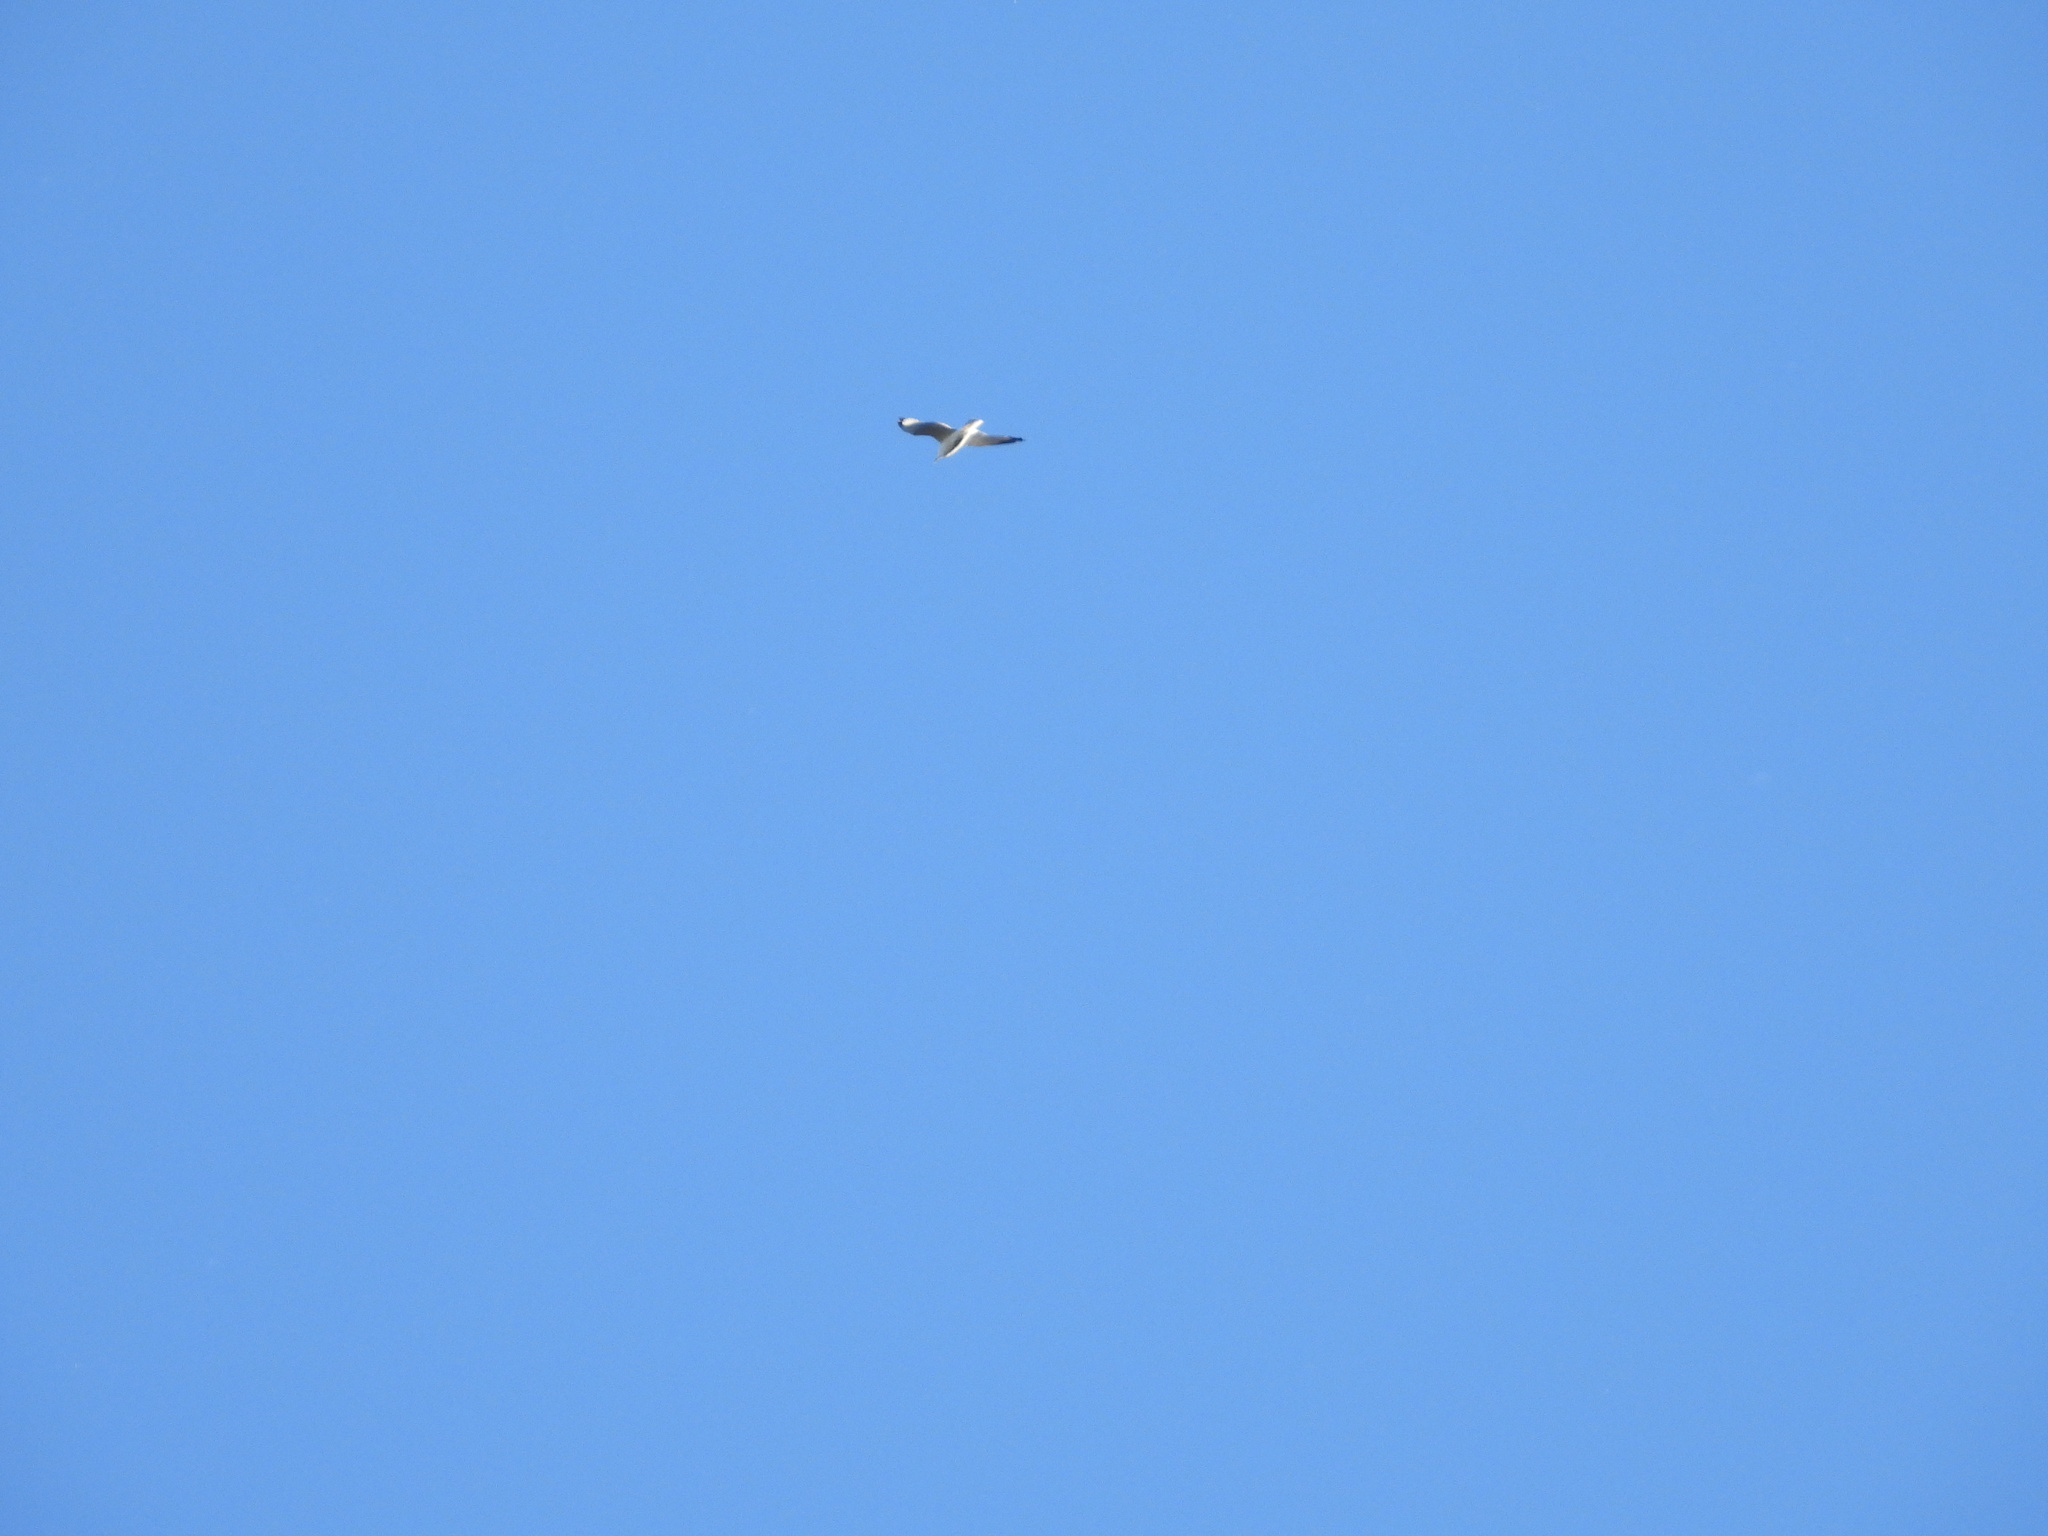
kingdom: Animalia
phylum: Chordata
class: Aves
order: Charadriiformes
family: Laridae
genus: Larus
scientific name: Larus delawarensis
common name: Ring-billed gull
